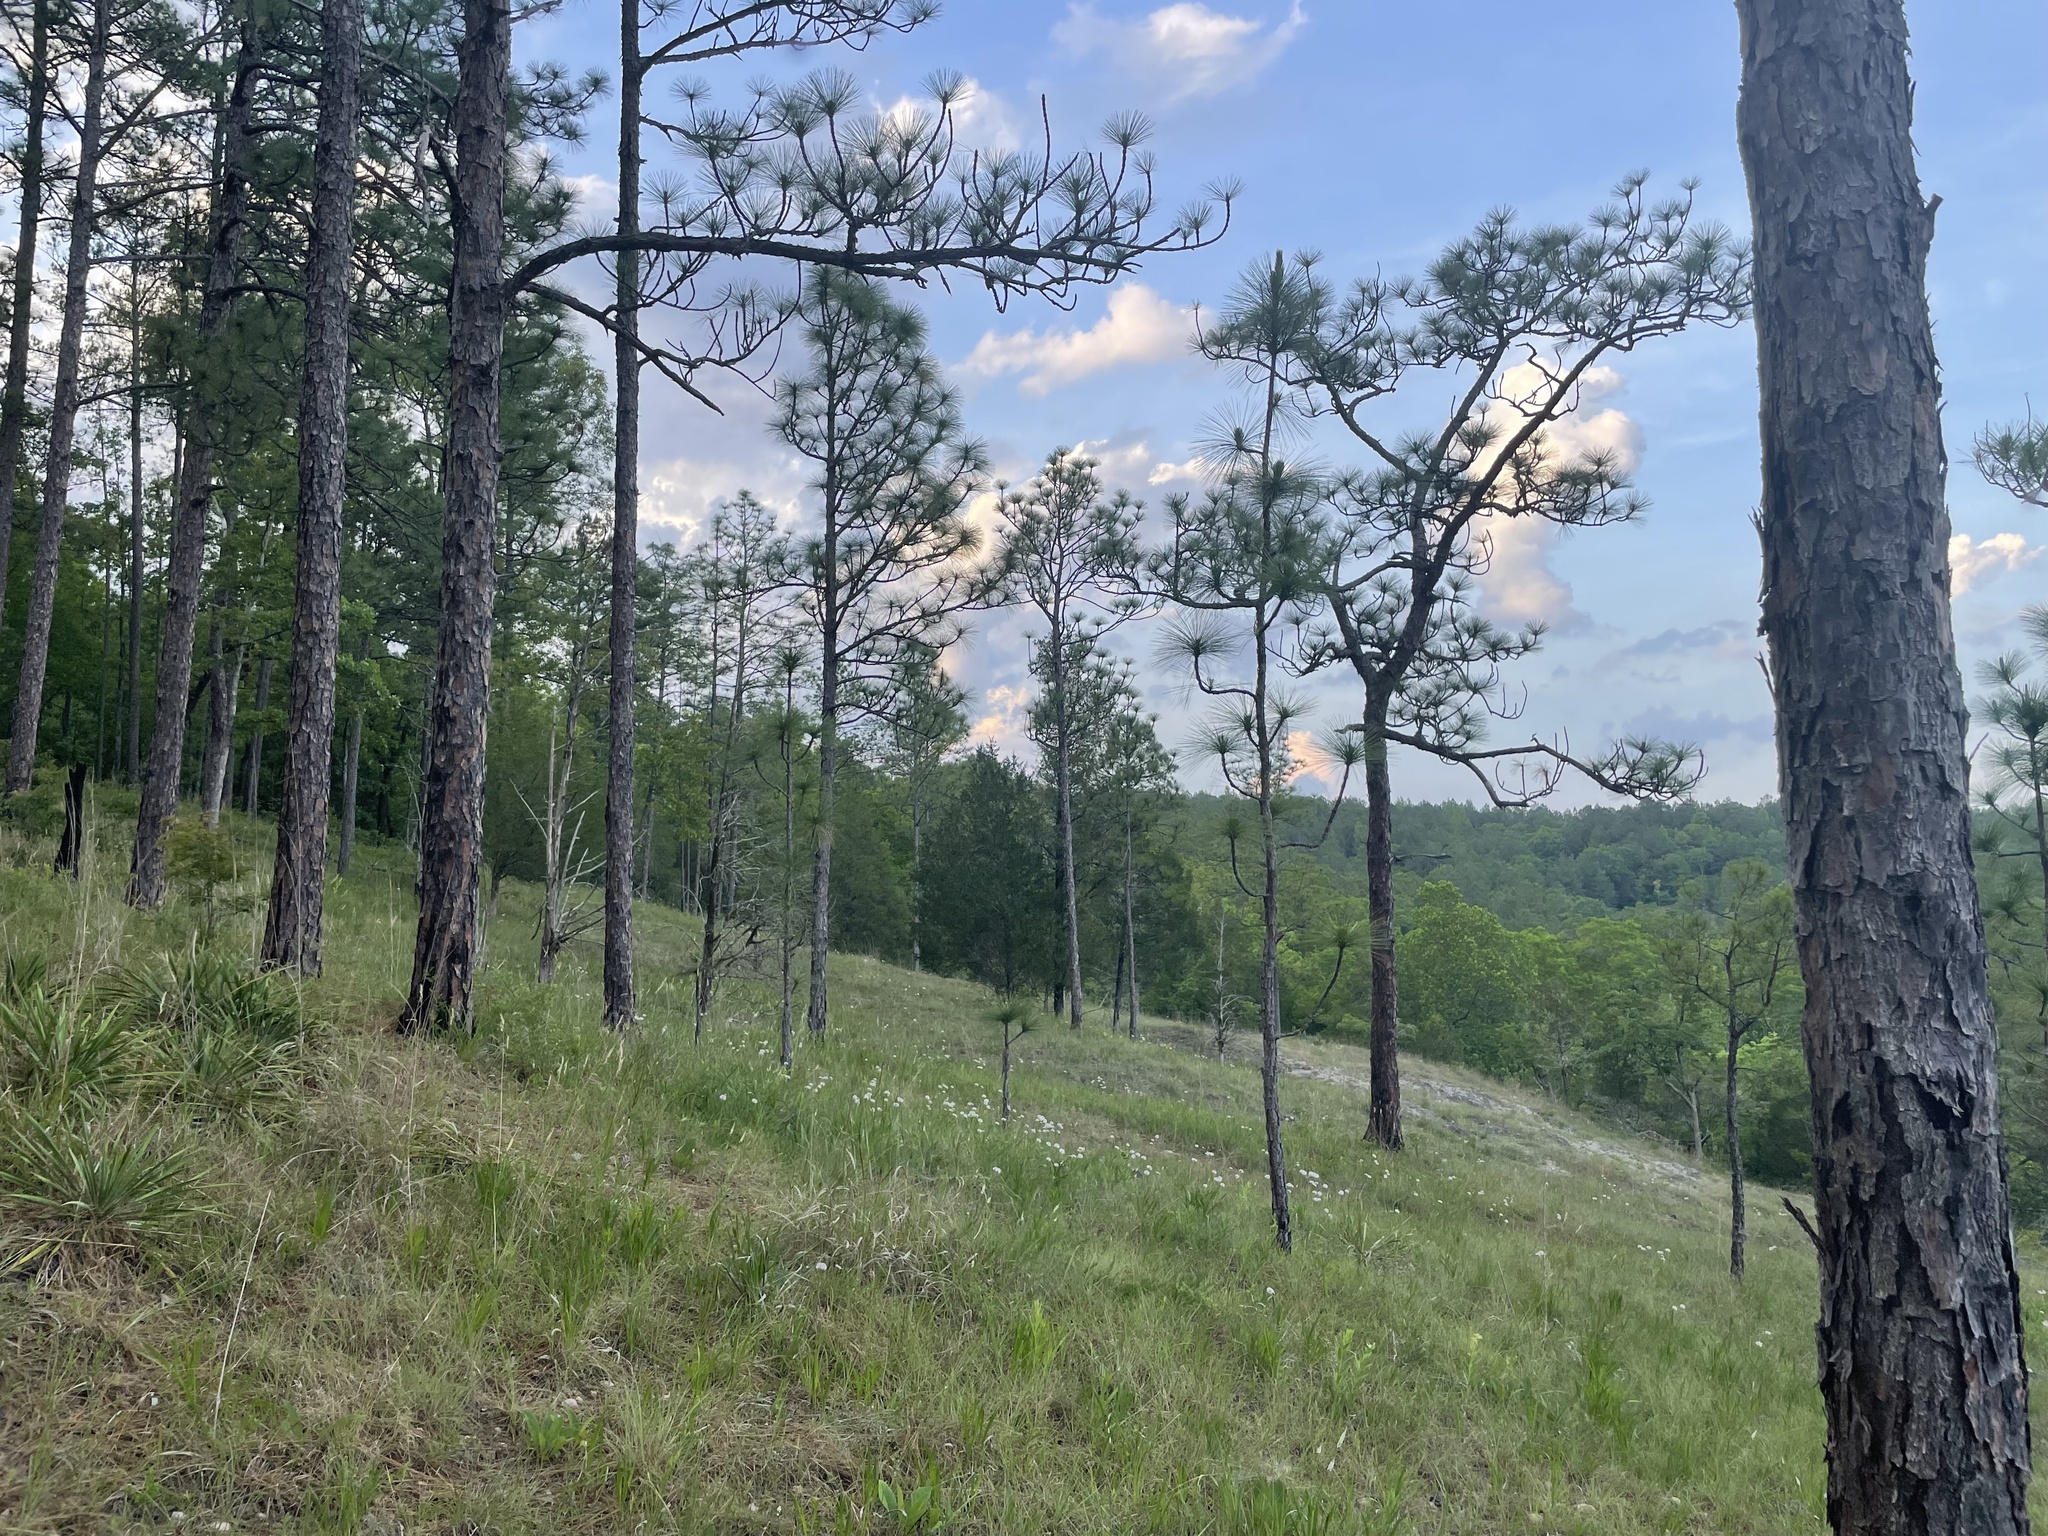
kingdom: Plantae
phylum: Tracheophyta
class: Pinopsida
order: Pinales
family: Pinaceae
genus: Pinus
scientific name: Pinus palustris
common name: Longleaf pine
